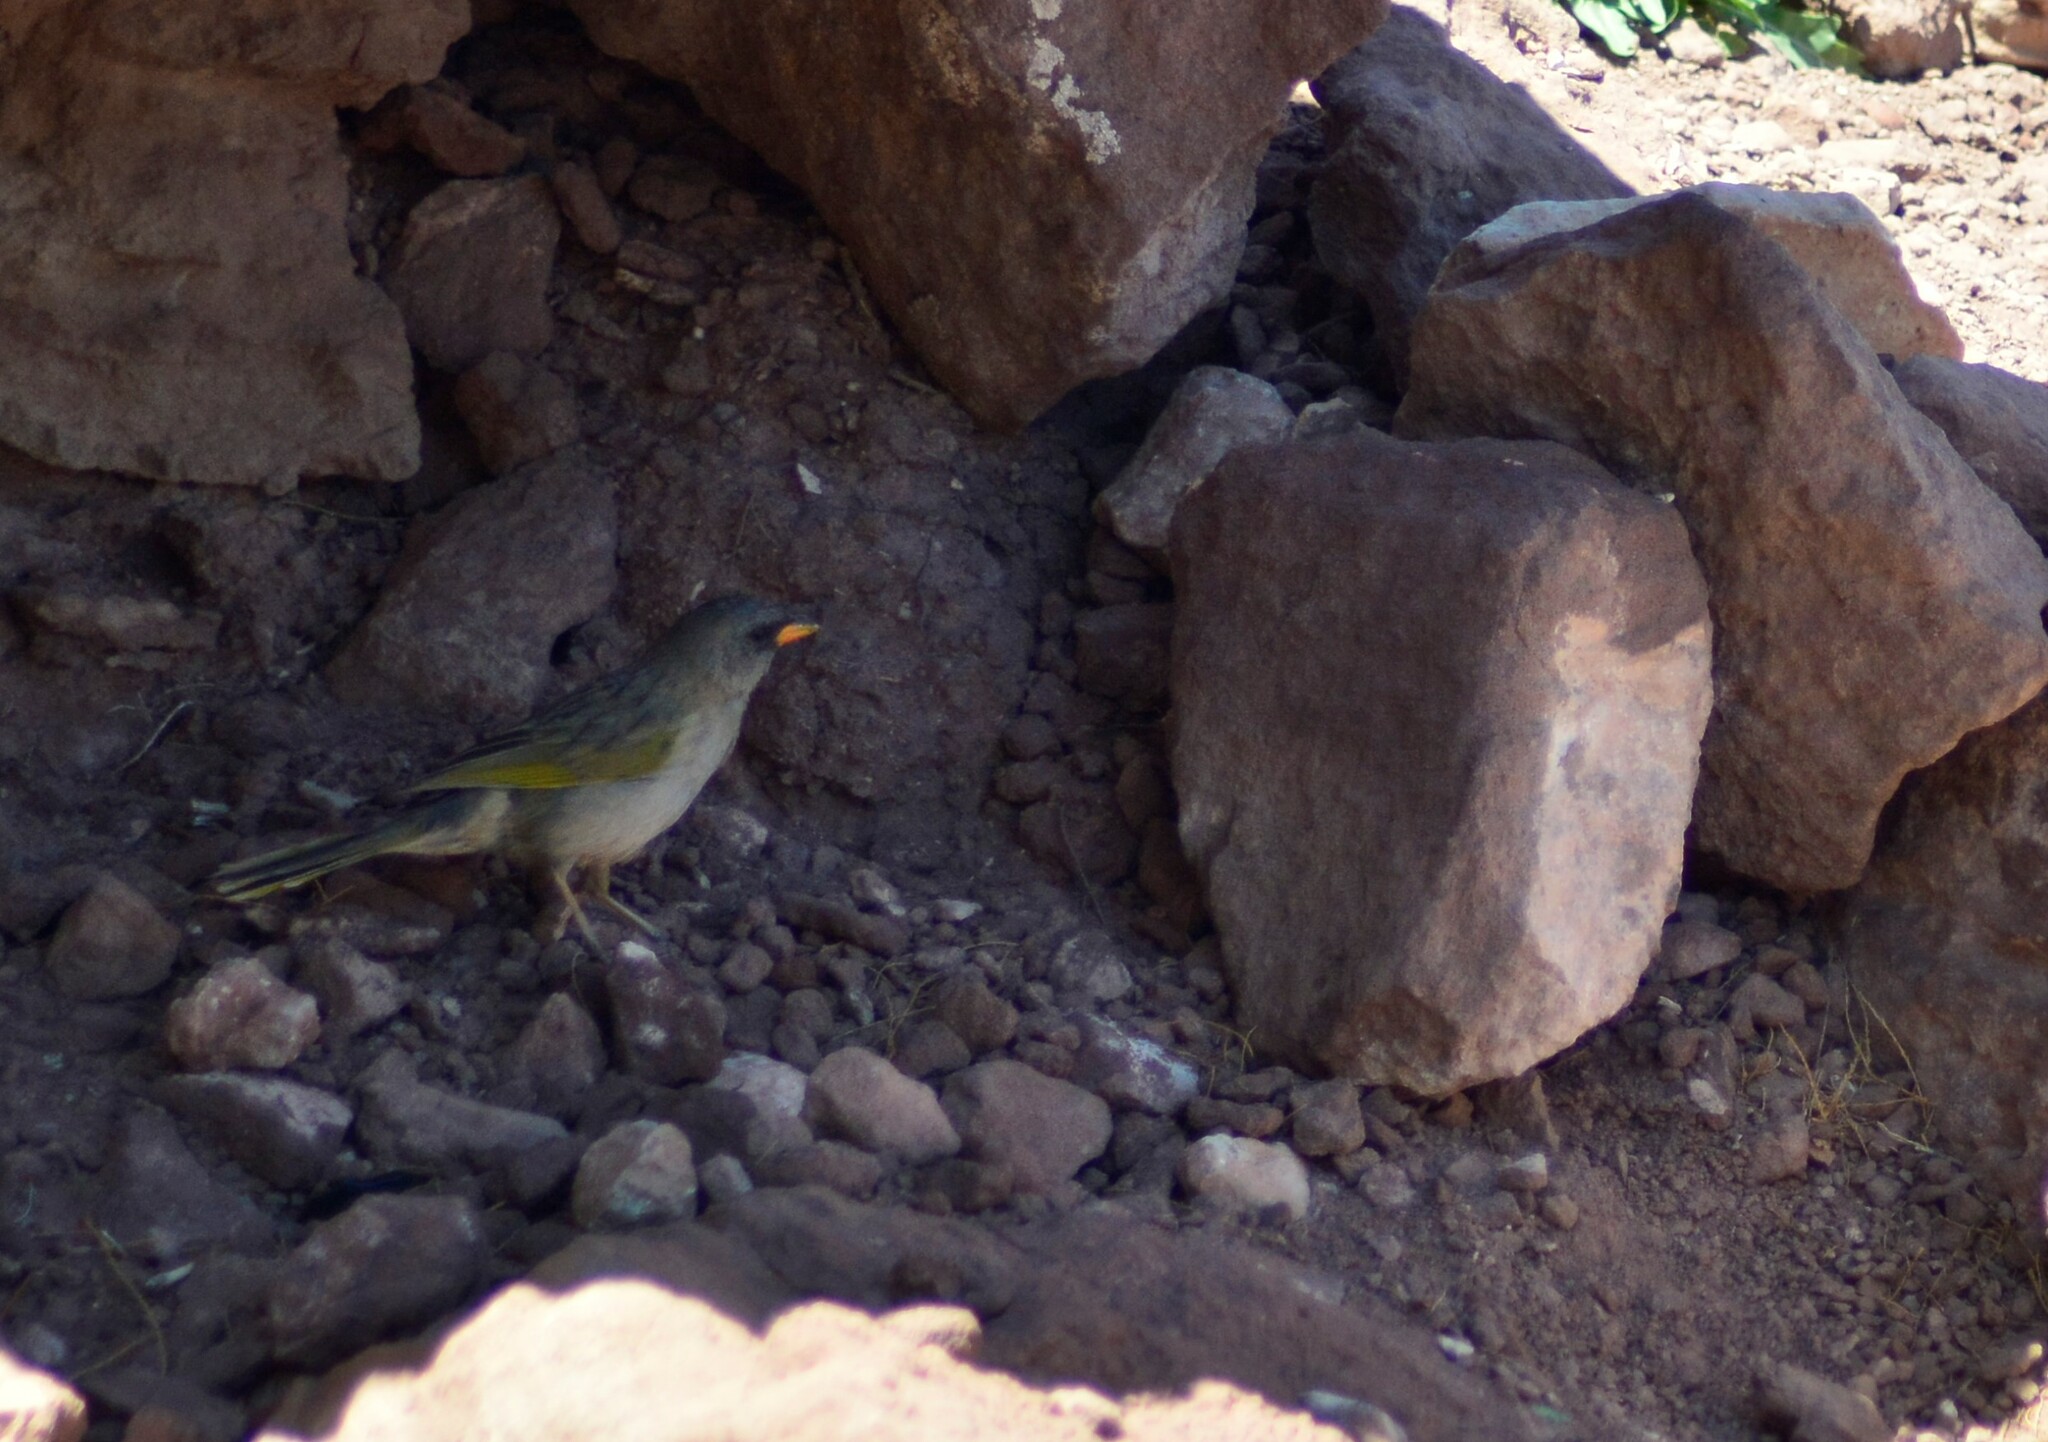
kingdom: Animalia
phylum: Chordata
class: Aves
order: Passeriformes
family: Thraupidae
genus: Embernagra
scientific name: Embernagra platensis
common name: Pampa finch
